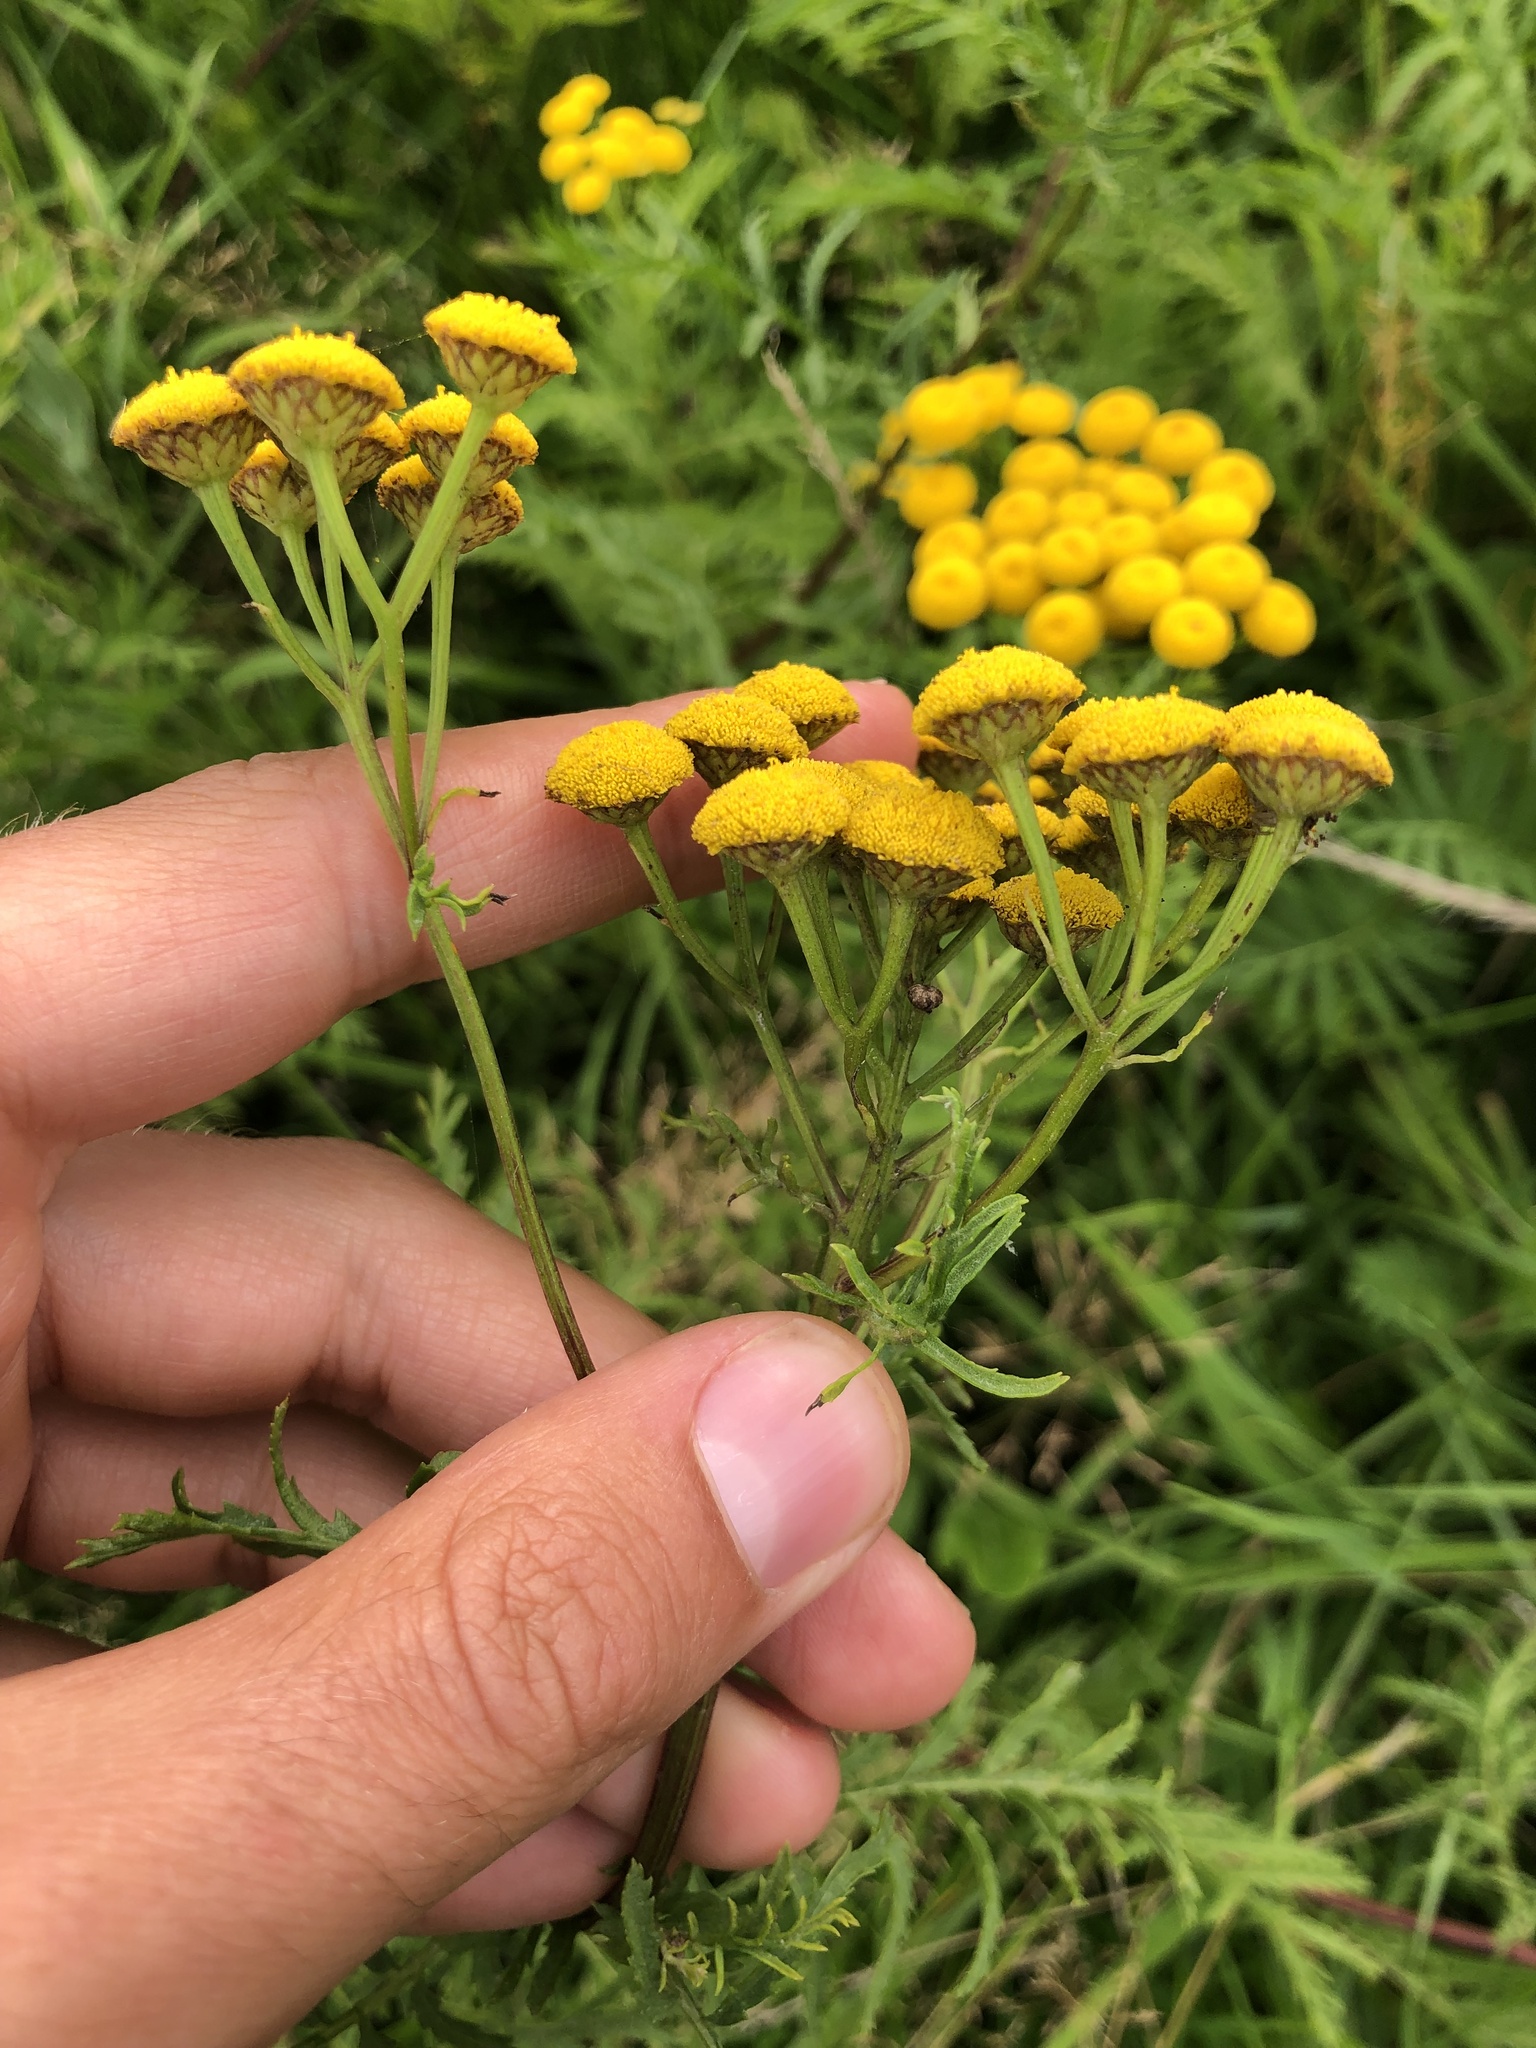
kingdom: Plantae
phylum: Tracheophyta
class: Magnoliopsida
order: Asterales
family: Asteraceae
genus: Tanacetum
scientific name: Tanacetum vulgare
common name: Common tansy
